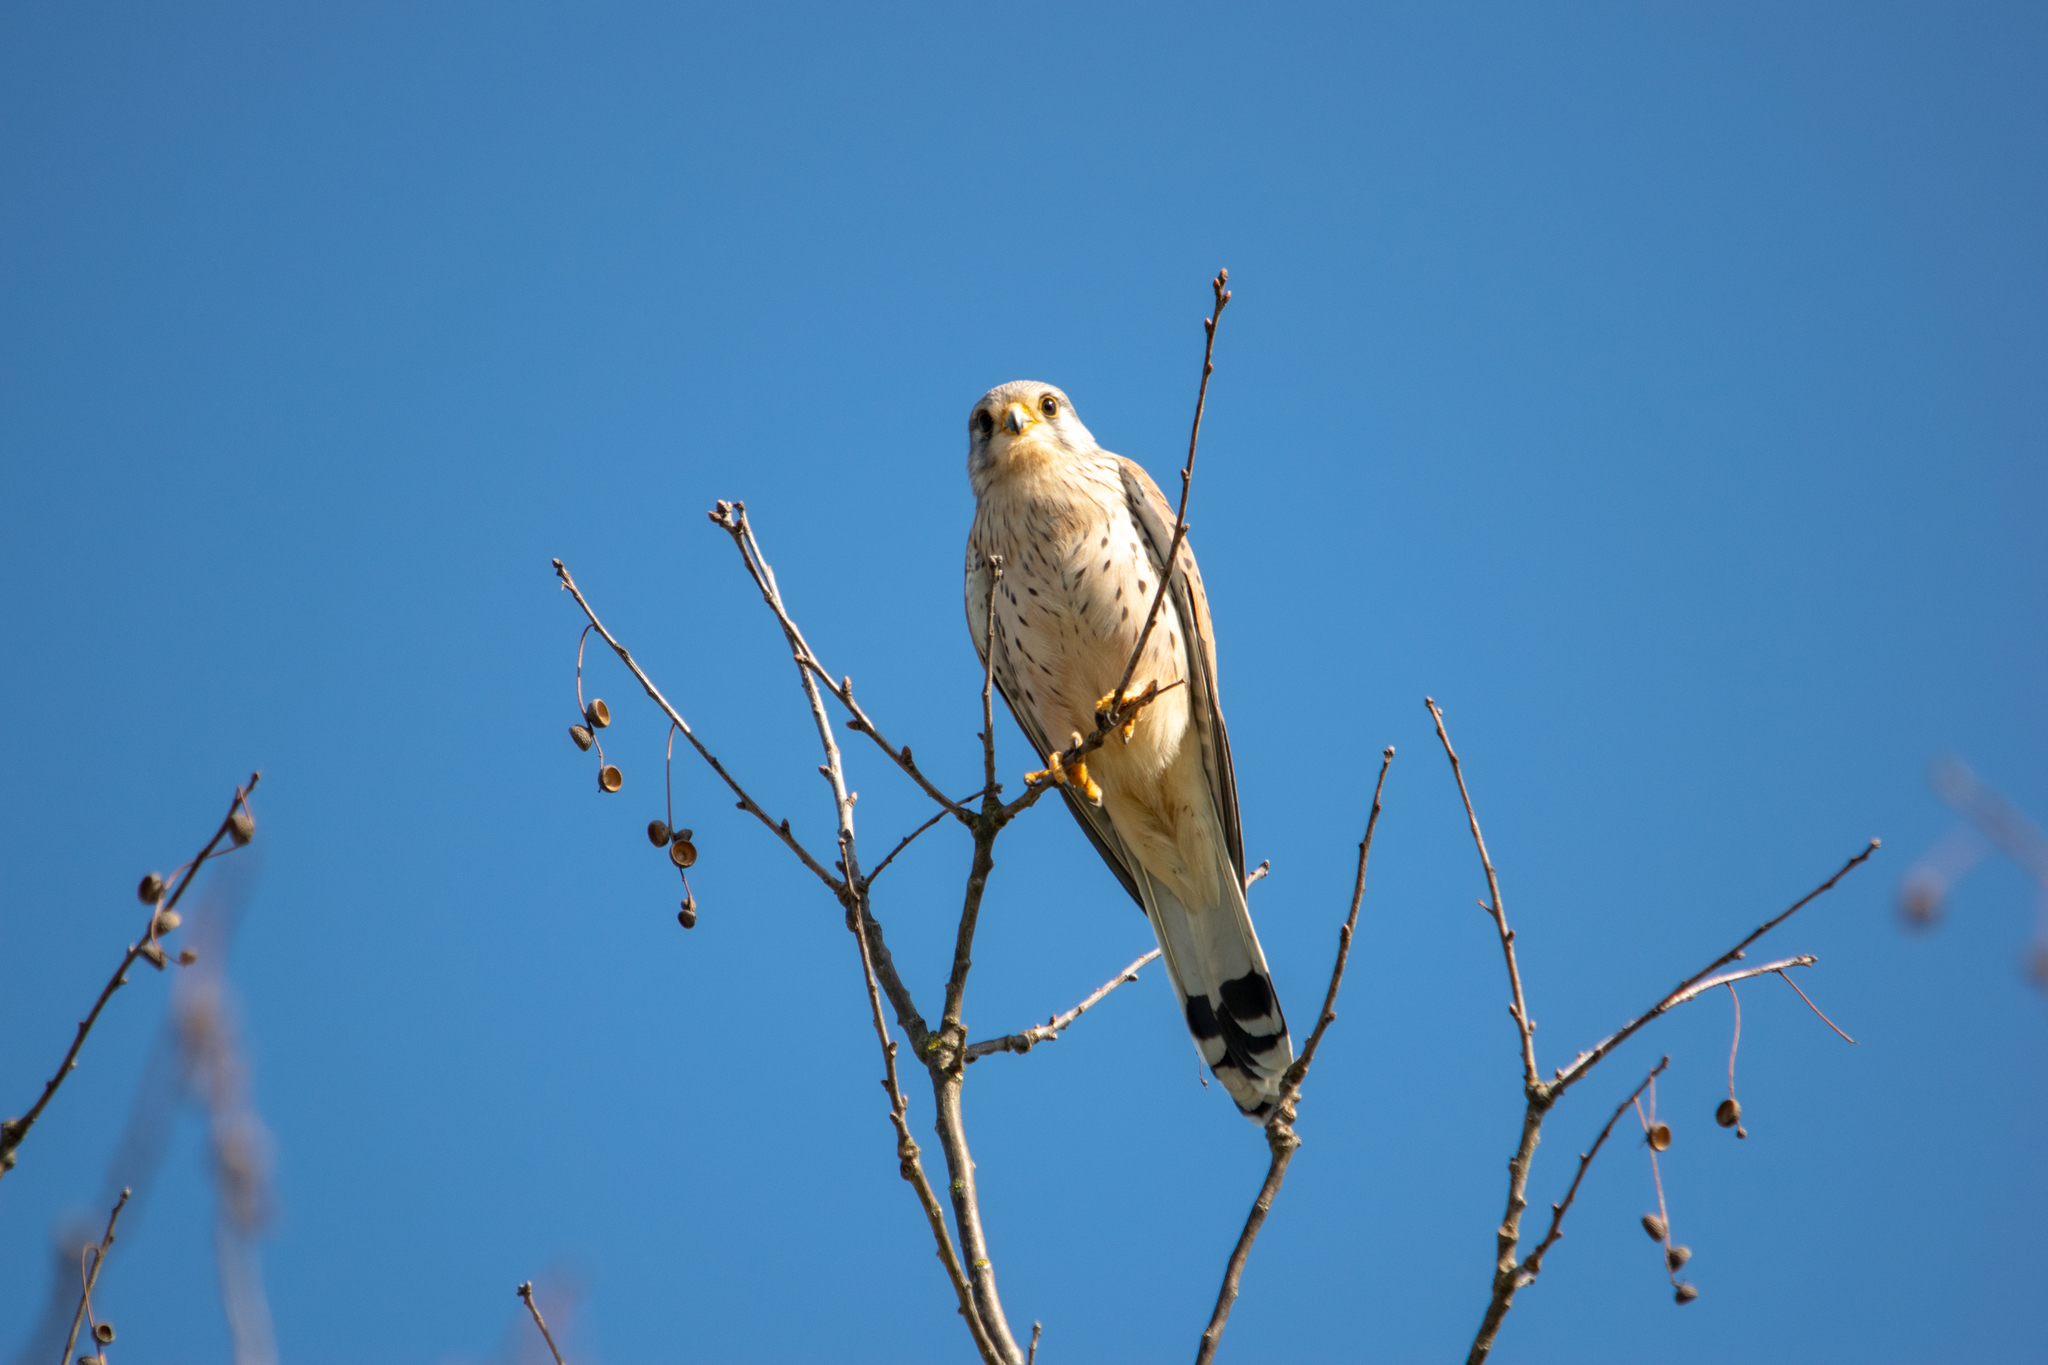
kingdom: Animalia
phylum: Chordata
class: Aves
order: Falconiformes
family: Falconidae
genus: Falco
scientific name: Falco tinnunculus
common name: Common kestrel
